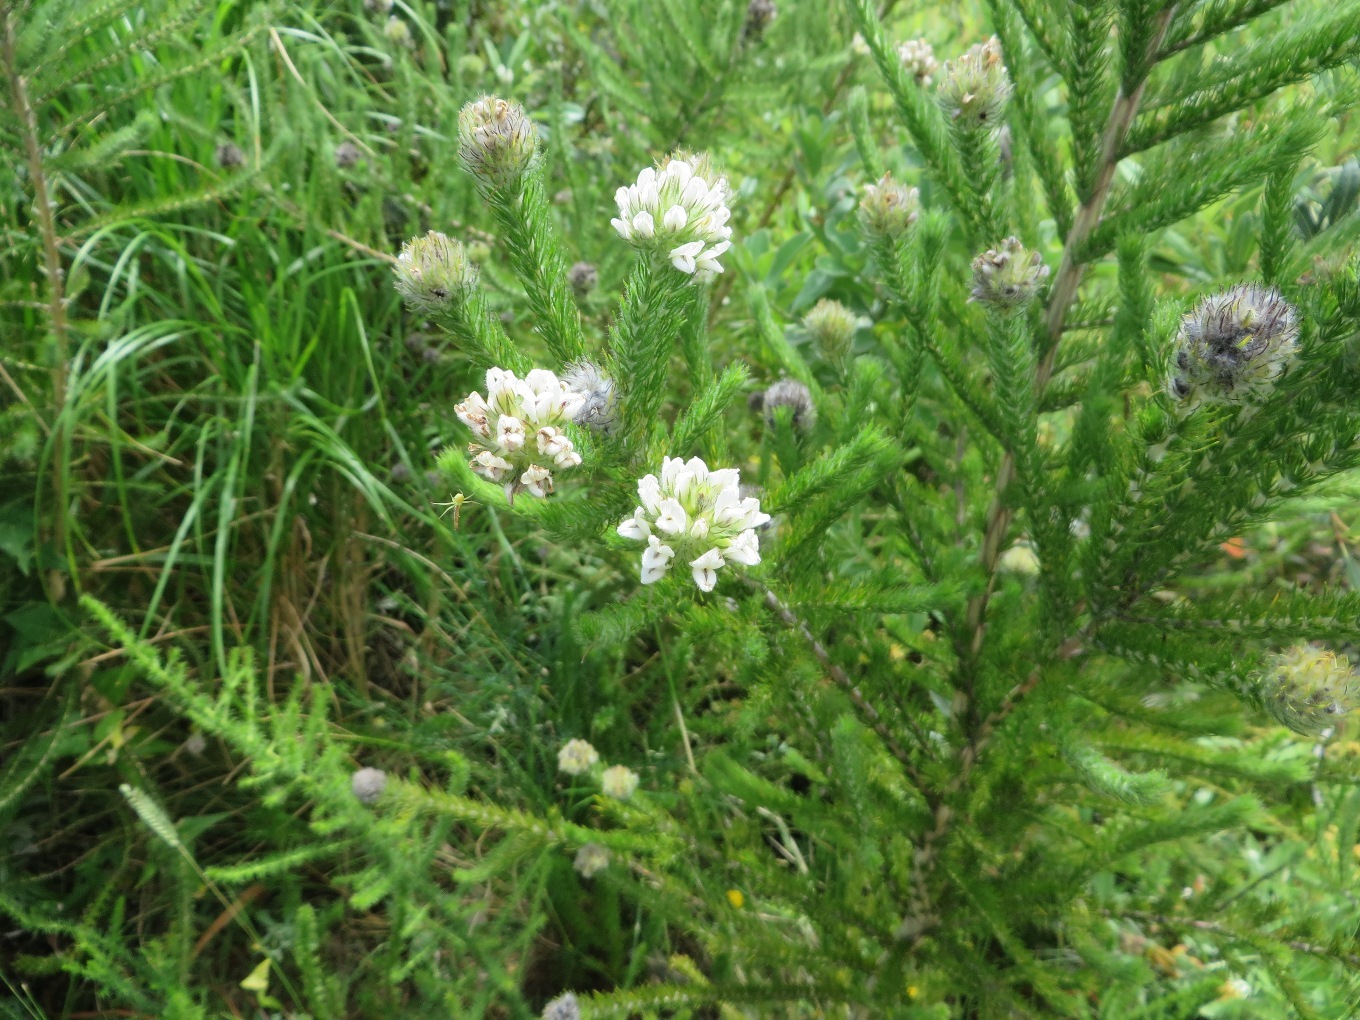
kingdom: Plantae
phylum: Tracheophyta
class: Magnoliopsida
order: Fabales
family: Fabaceae
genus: Aspalathus
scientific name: Aspalathus cephalotes
